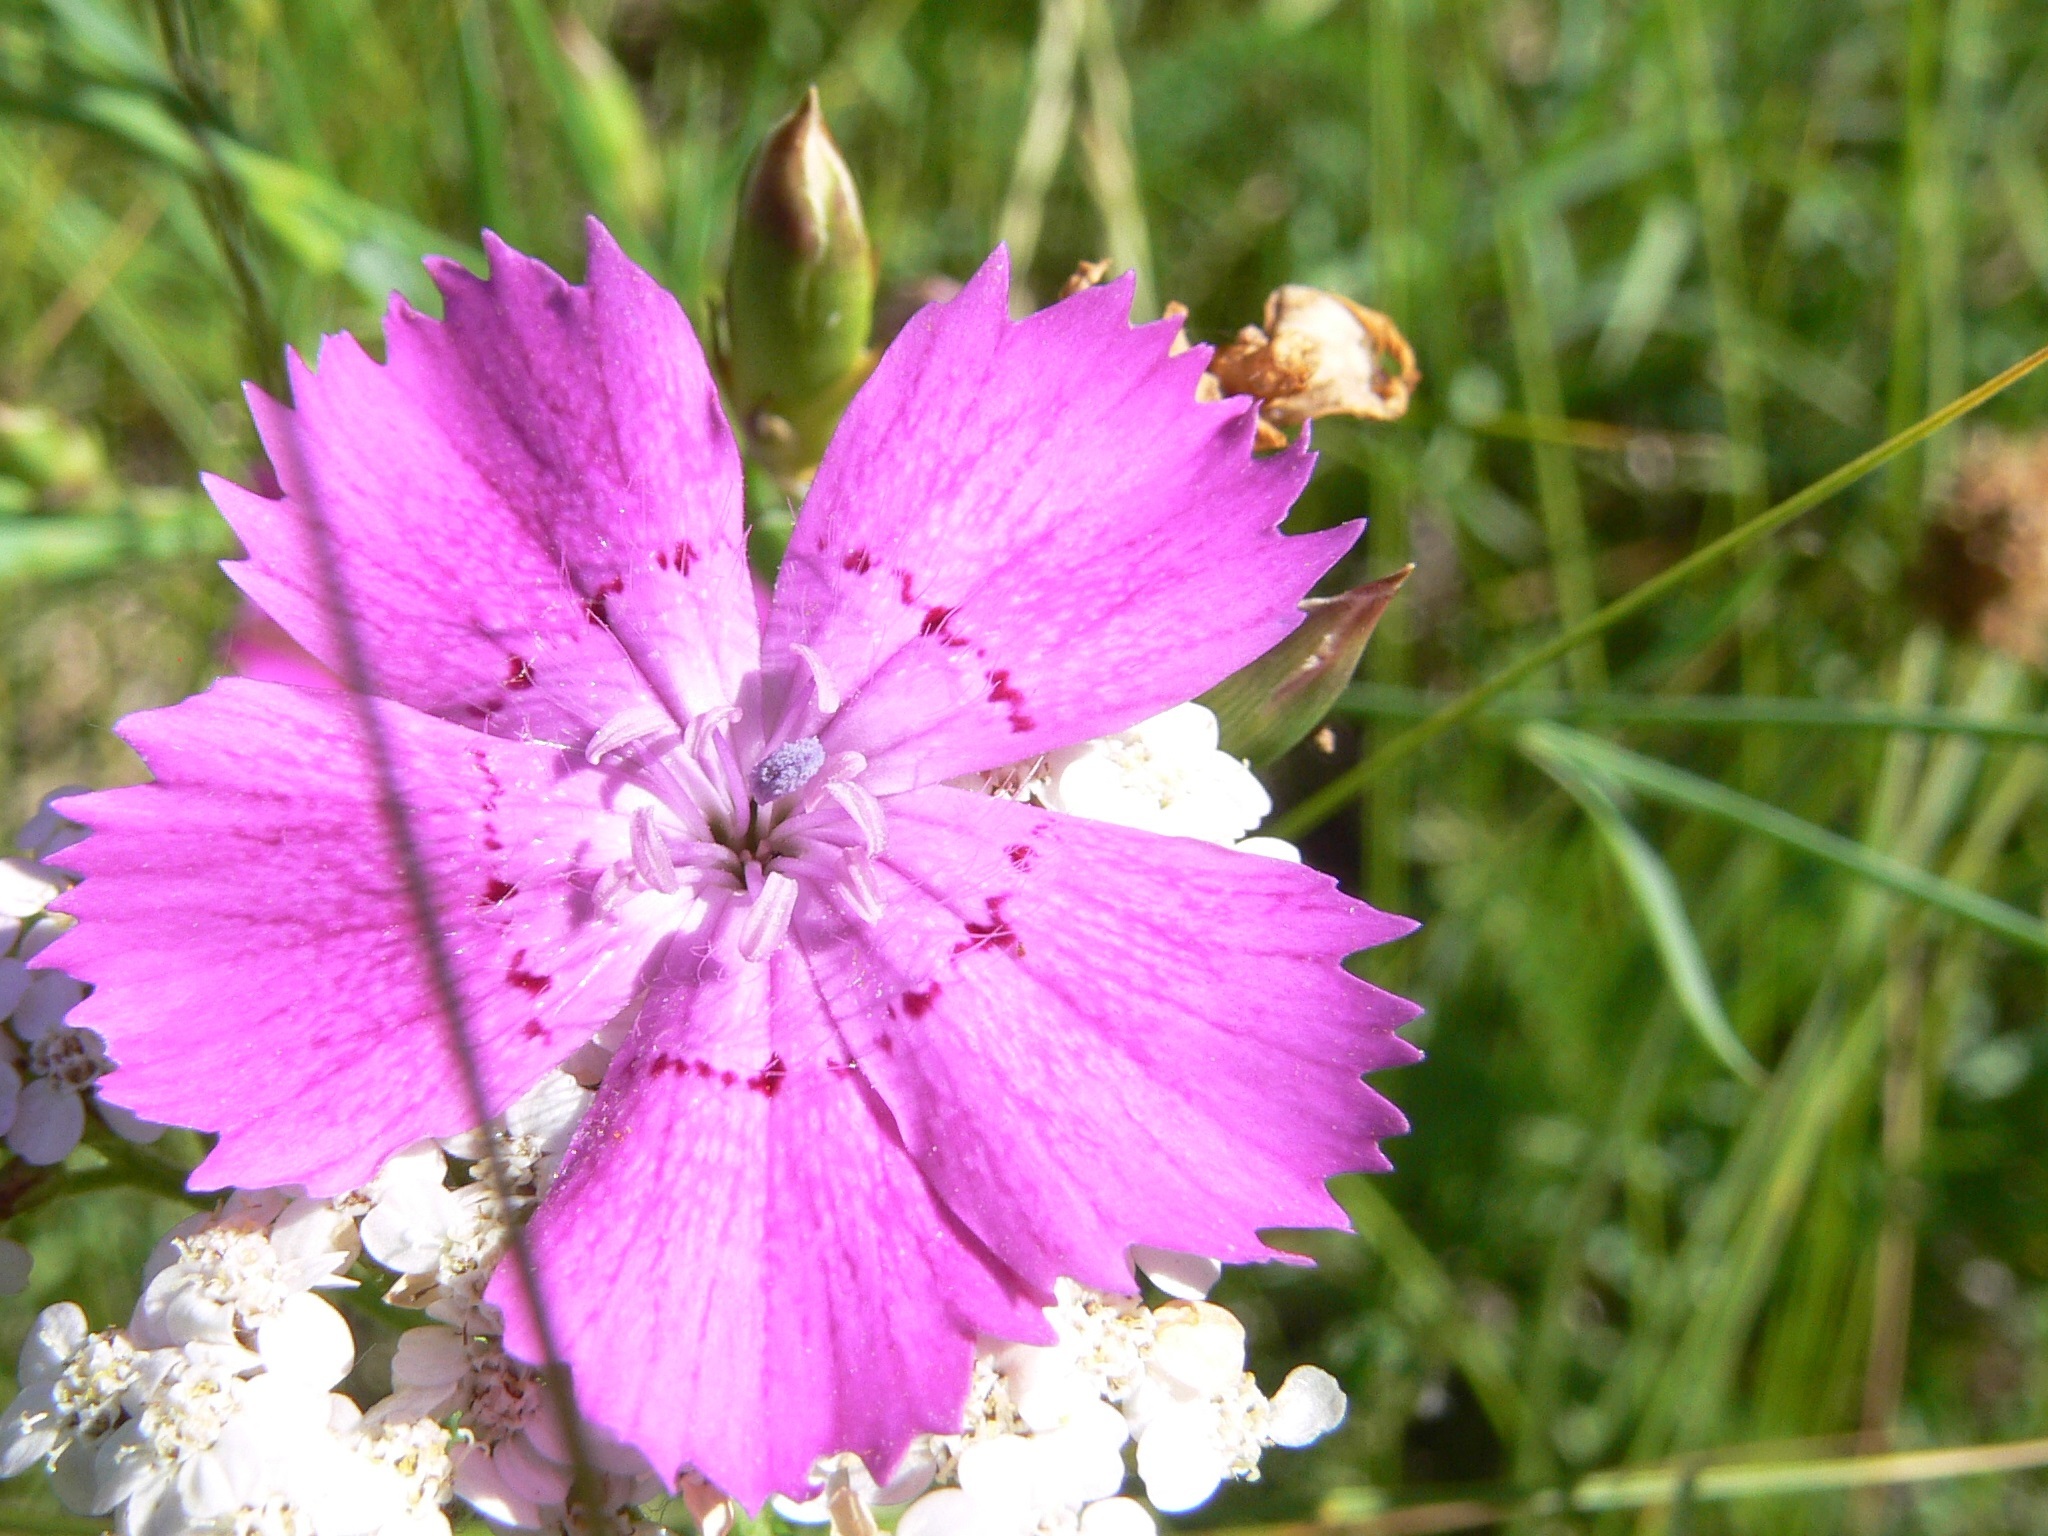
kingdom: Plantae
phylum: Tracheophyta
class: Magnoliopsida
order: Caryophyllales
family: Caryophyllaceae
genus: Dianthus
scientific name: Dianthus chinensis
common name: Rainbow pink
